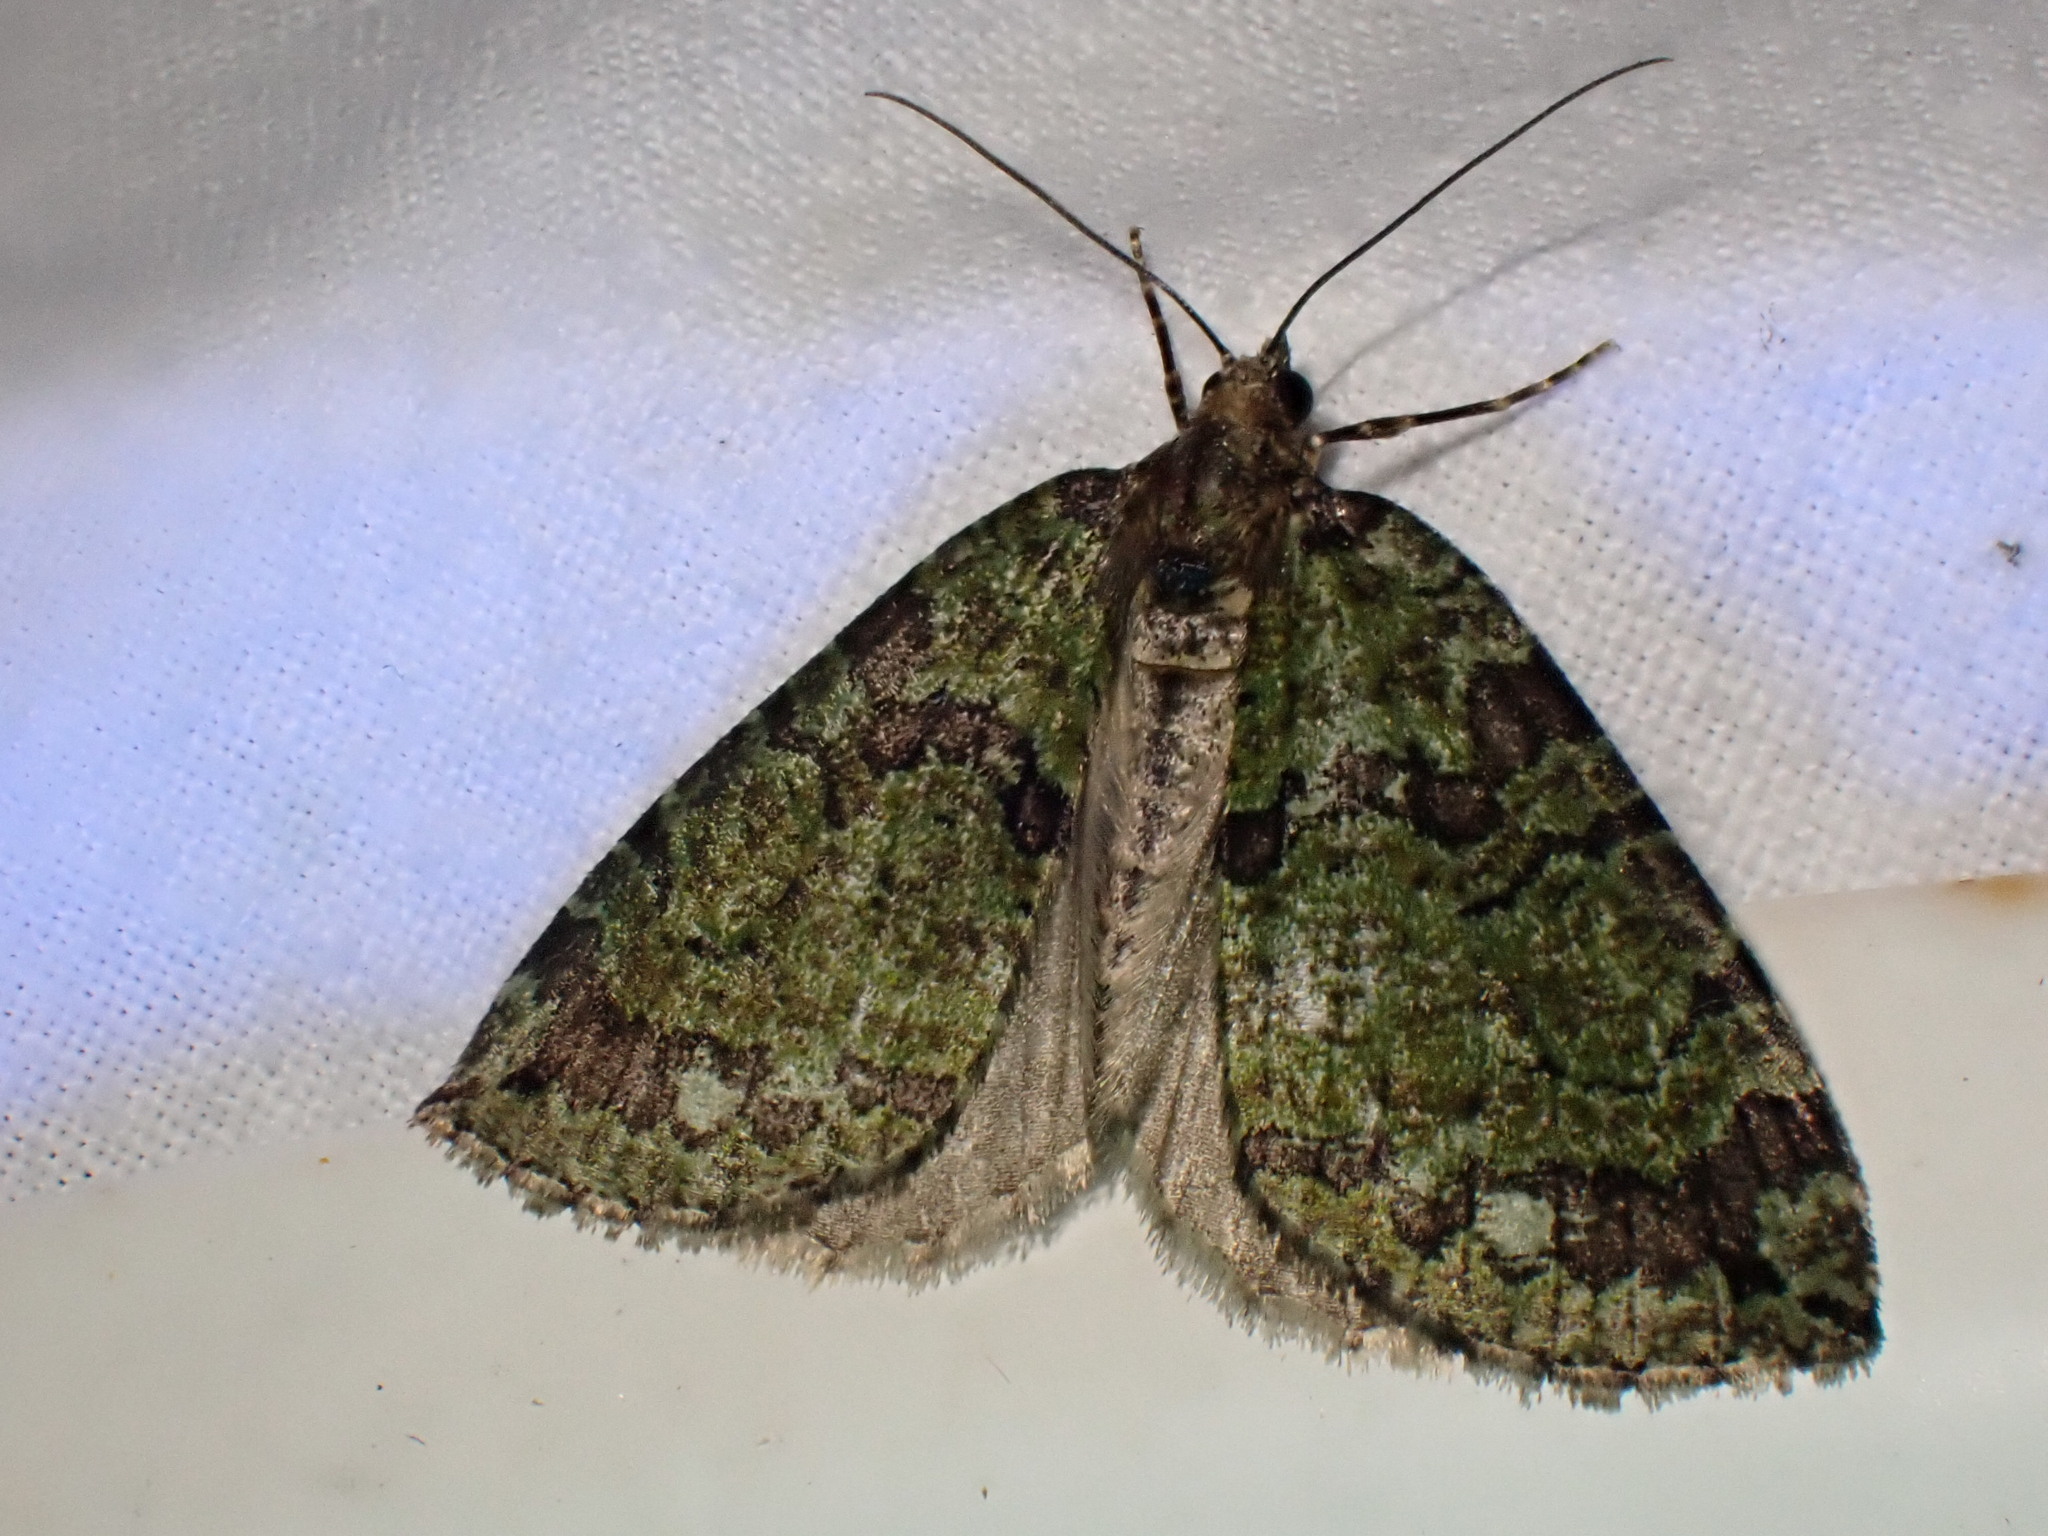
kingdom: Animalia
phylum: Arthropoda
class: Insecta
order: Lepidoptera
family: Geometridae
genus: Hydriomena
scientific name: Hydriomena furcata
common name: July highflyer
